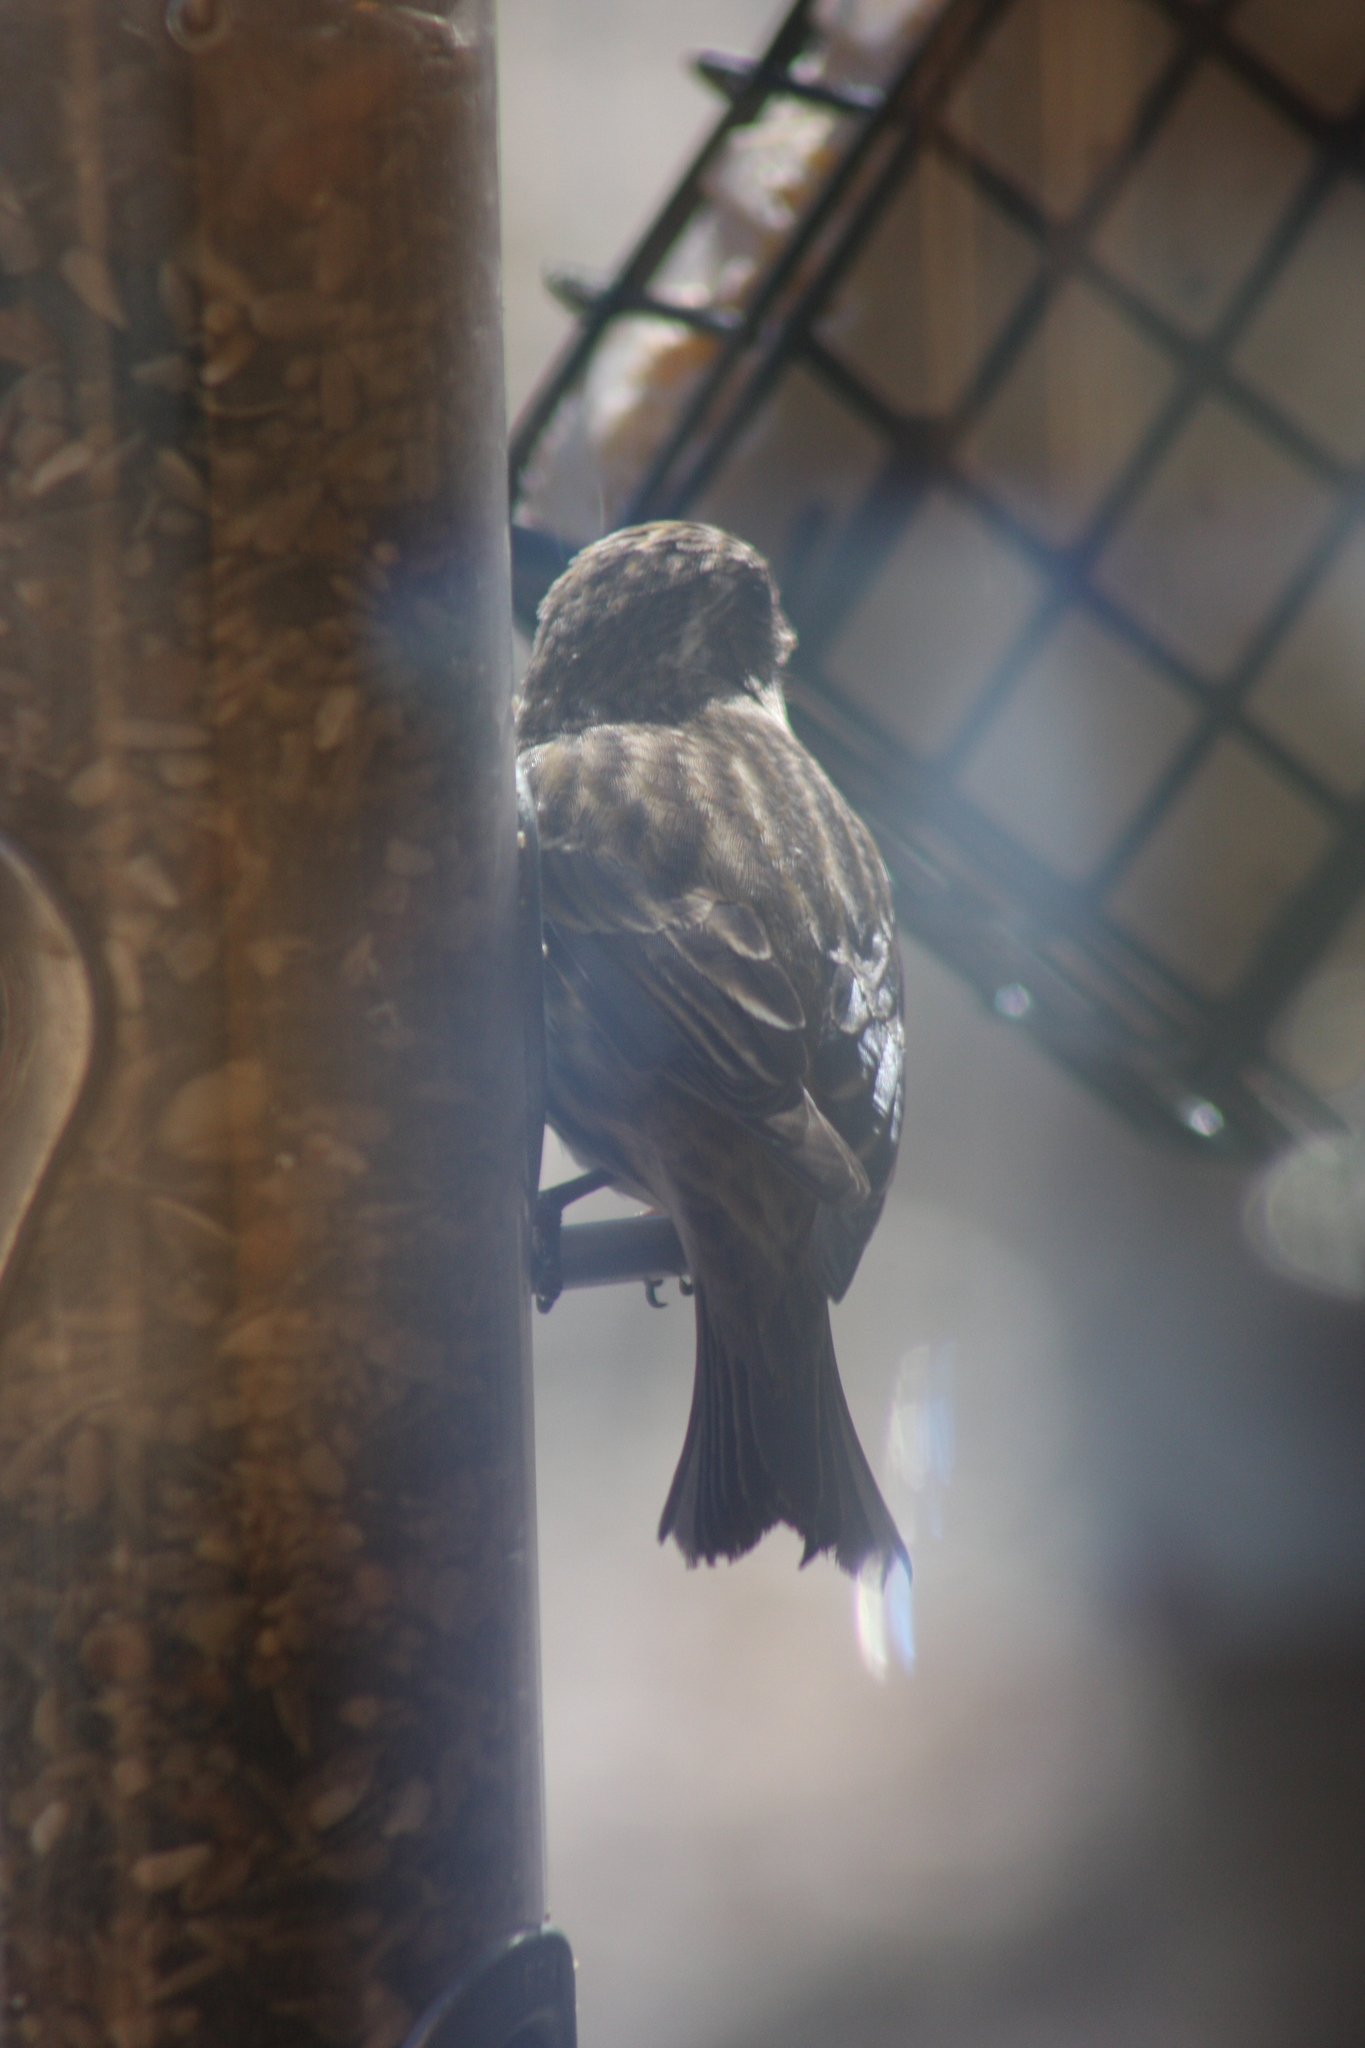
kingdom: Animalia
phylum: Chordata
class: Aves
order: Passeriformes
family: Fringillidae
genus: Spinus
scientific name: Spinus pinus
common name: Pine siskin
